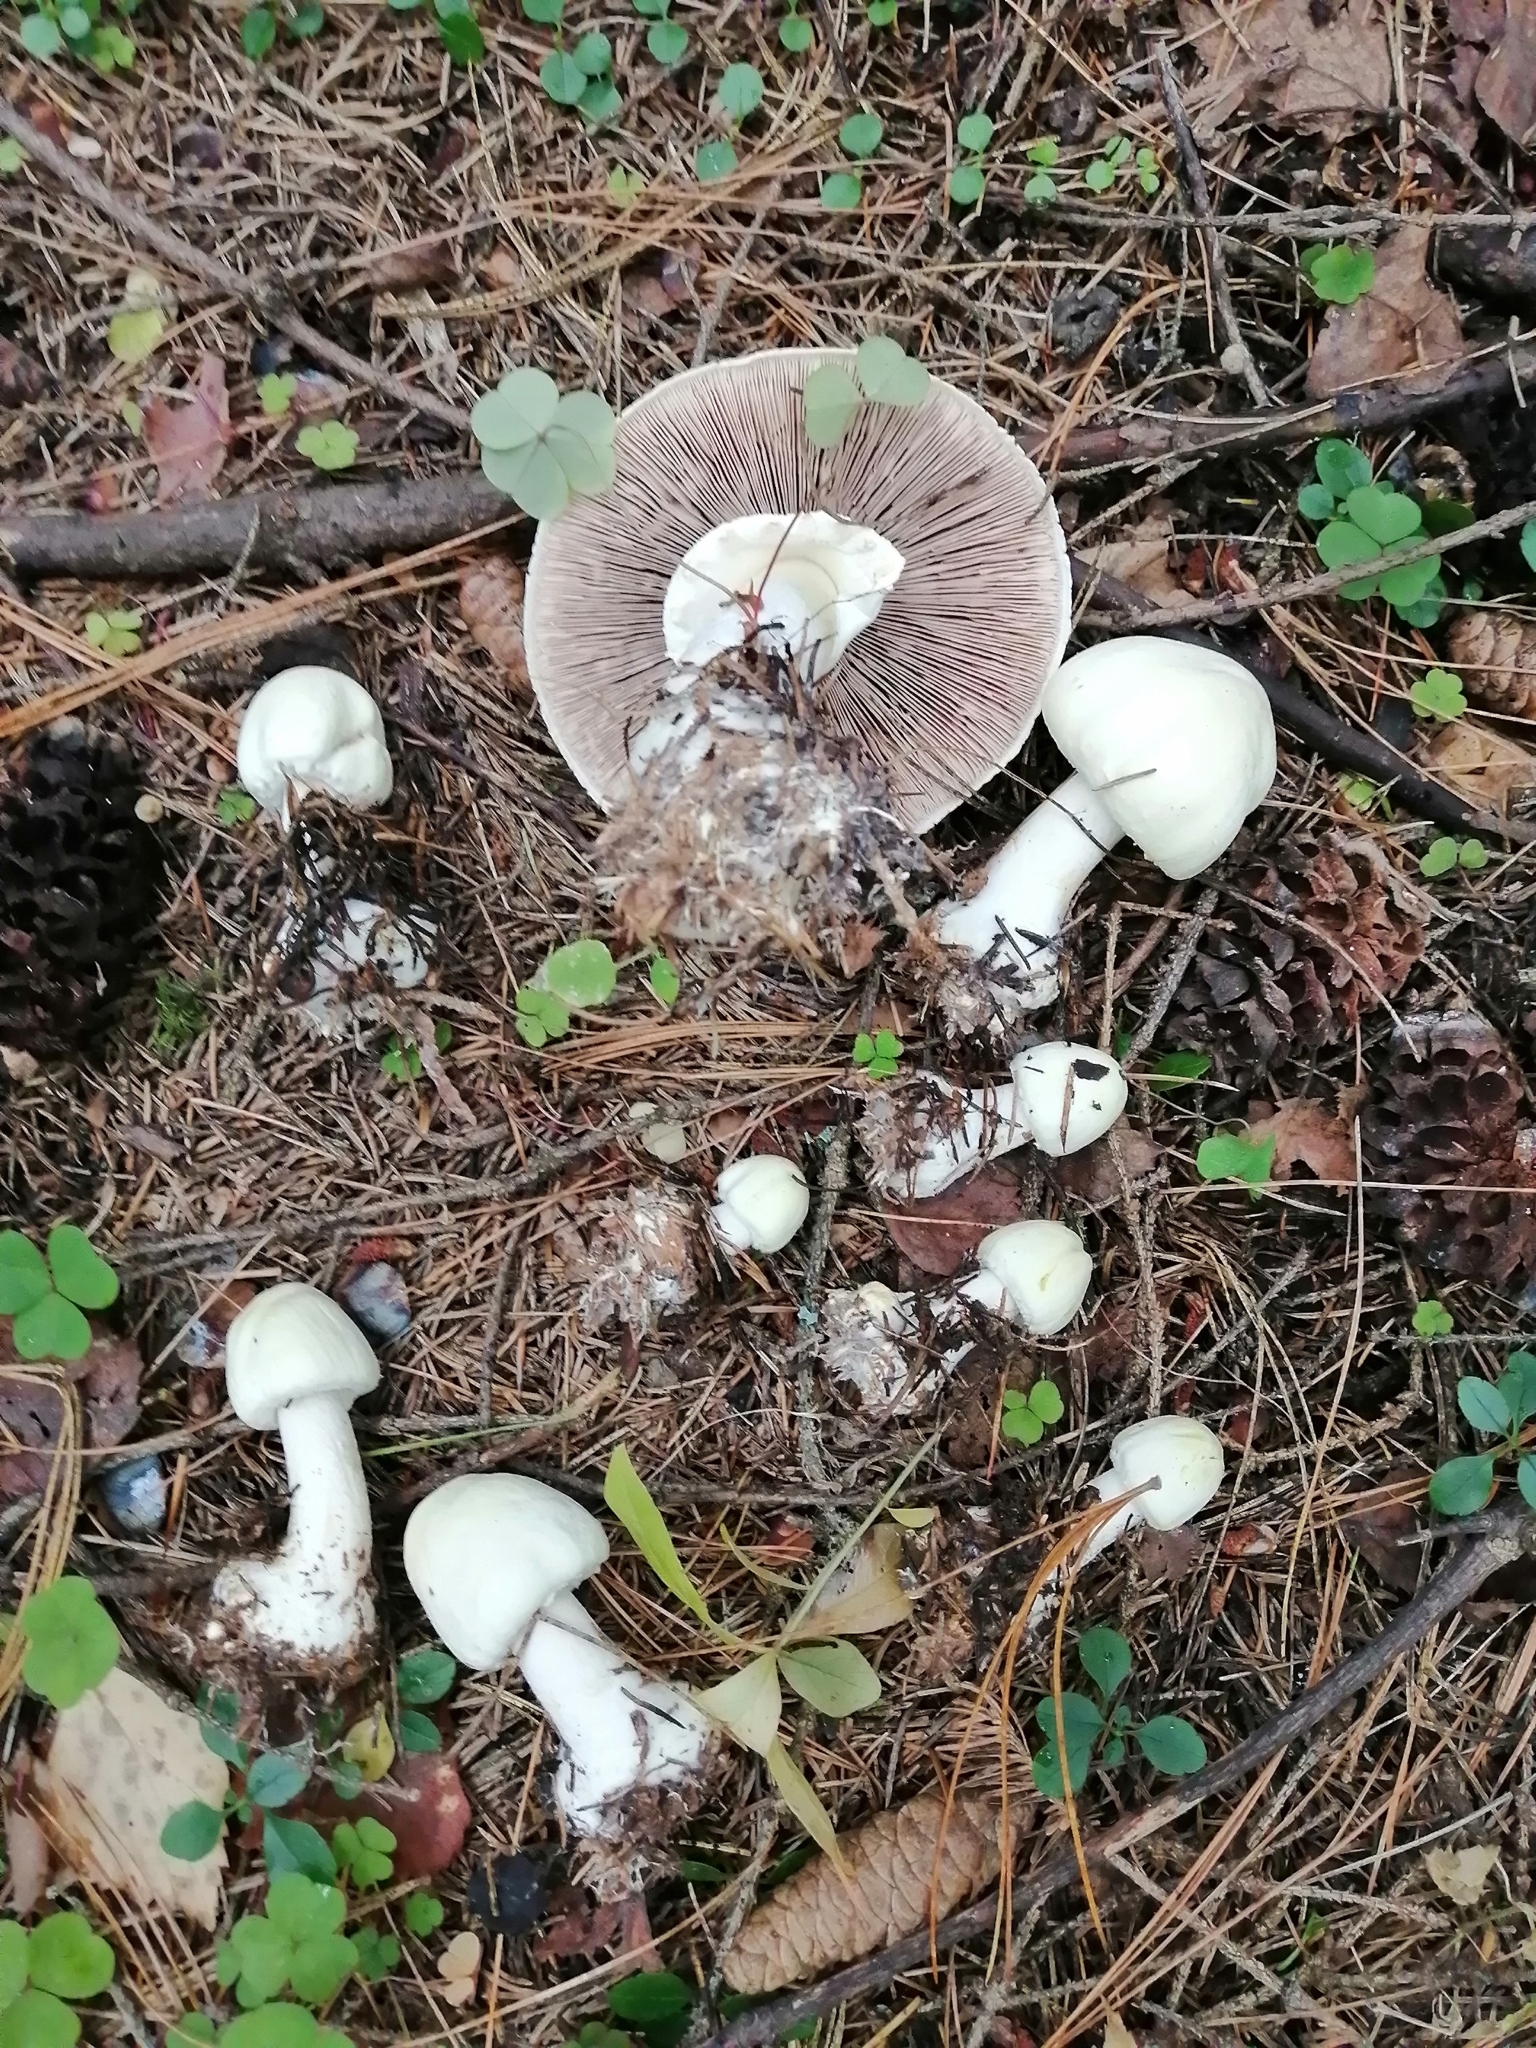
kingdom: Fungi
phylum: Basidiomycota
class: Agaricomycetes
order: Agaricales
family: Agaricaceae
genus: Agaricus
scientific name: Agaricus sylvicola
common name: Wood mushroom
